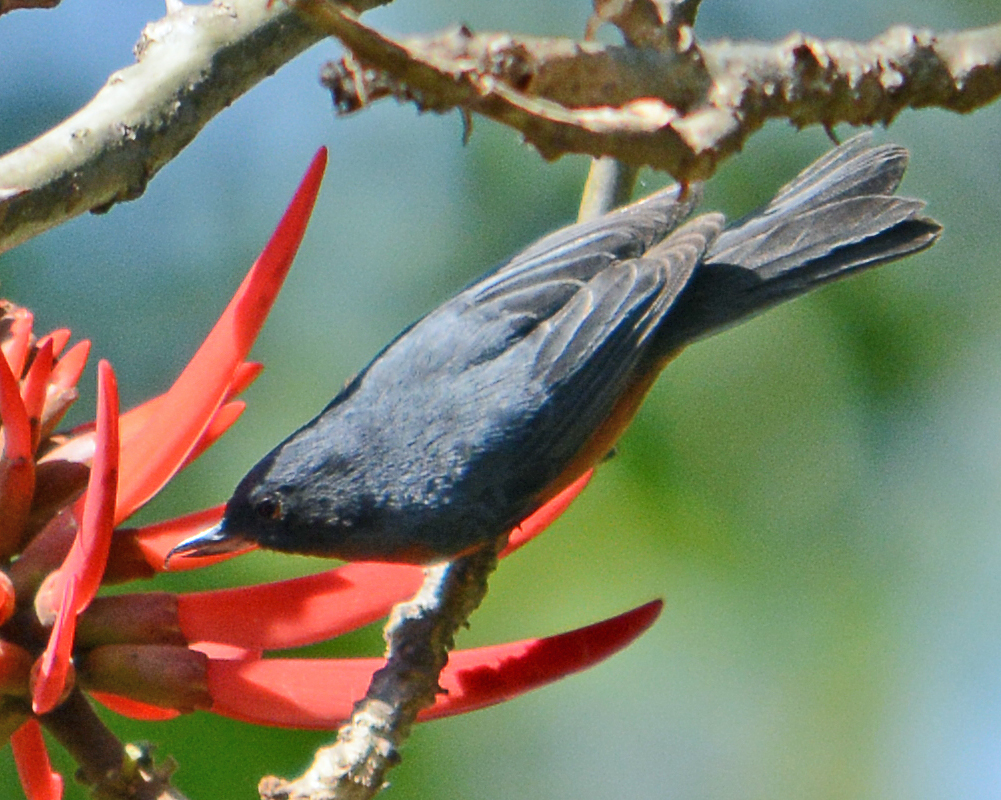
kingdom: Animalia
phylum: Chordata
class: Aves
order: Passeriformes
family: Thraupidae
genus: Diglossa
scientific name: Diglossa baritula
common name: Cinnamon-bellied flowerpiercer
